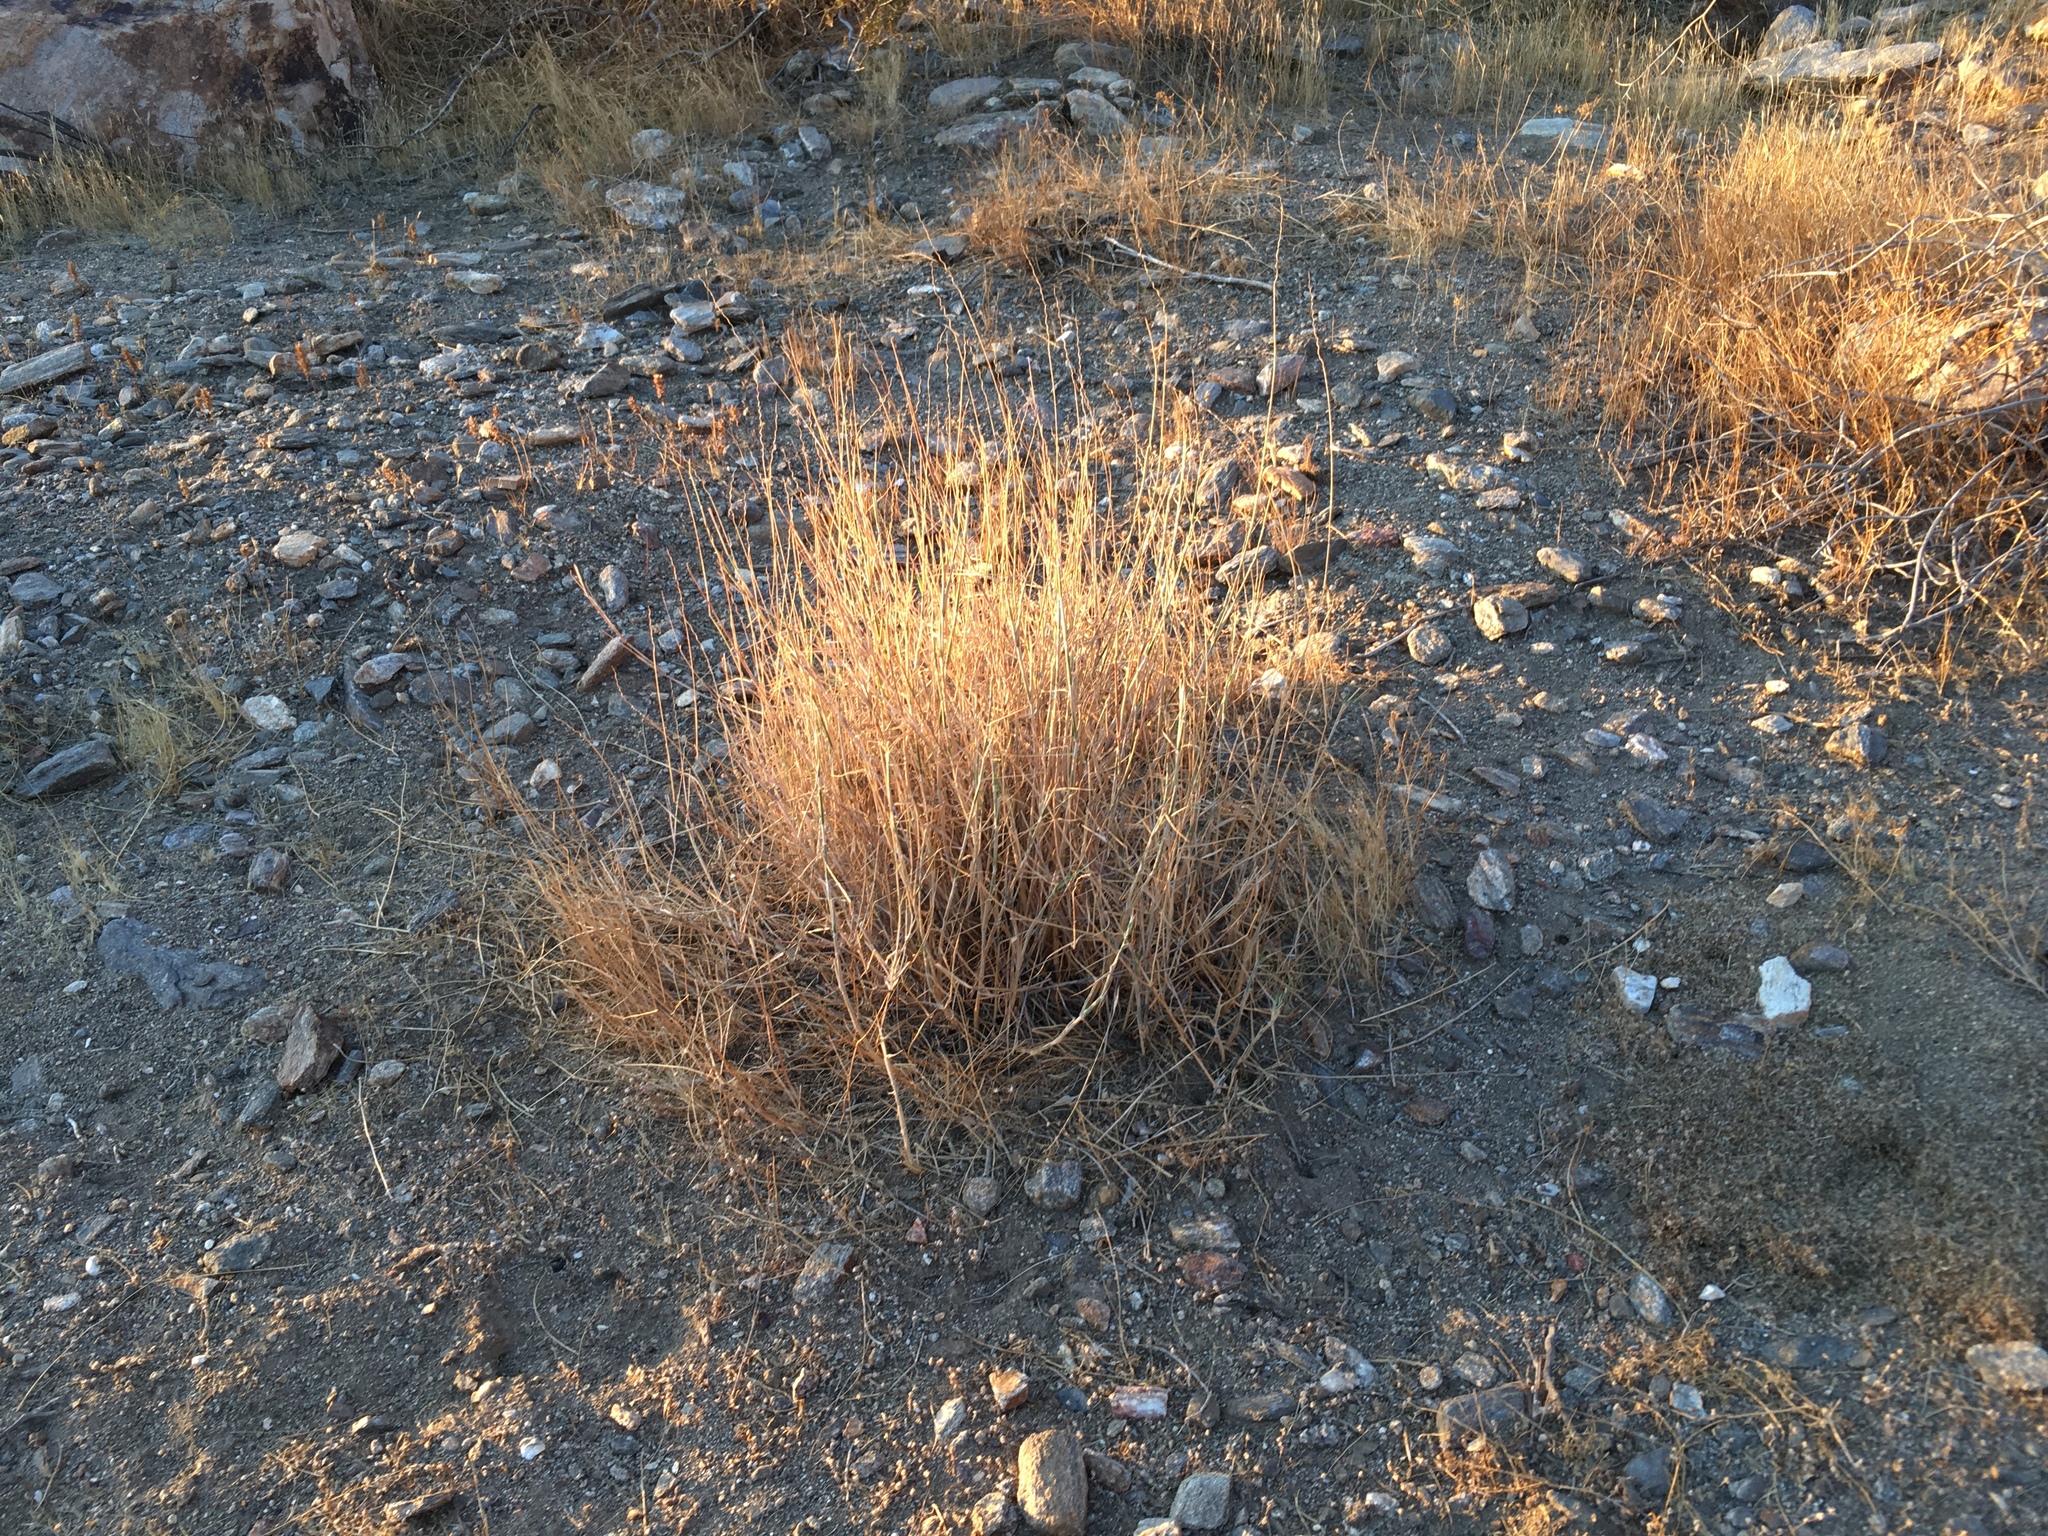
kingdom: Plantae
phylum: Tracheophyta
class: Liliopsida
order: Poales
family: Poaceae
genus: Hilaria
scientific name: Hilaria rigida
